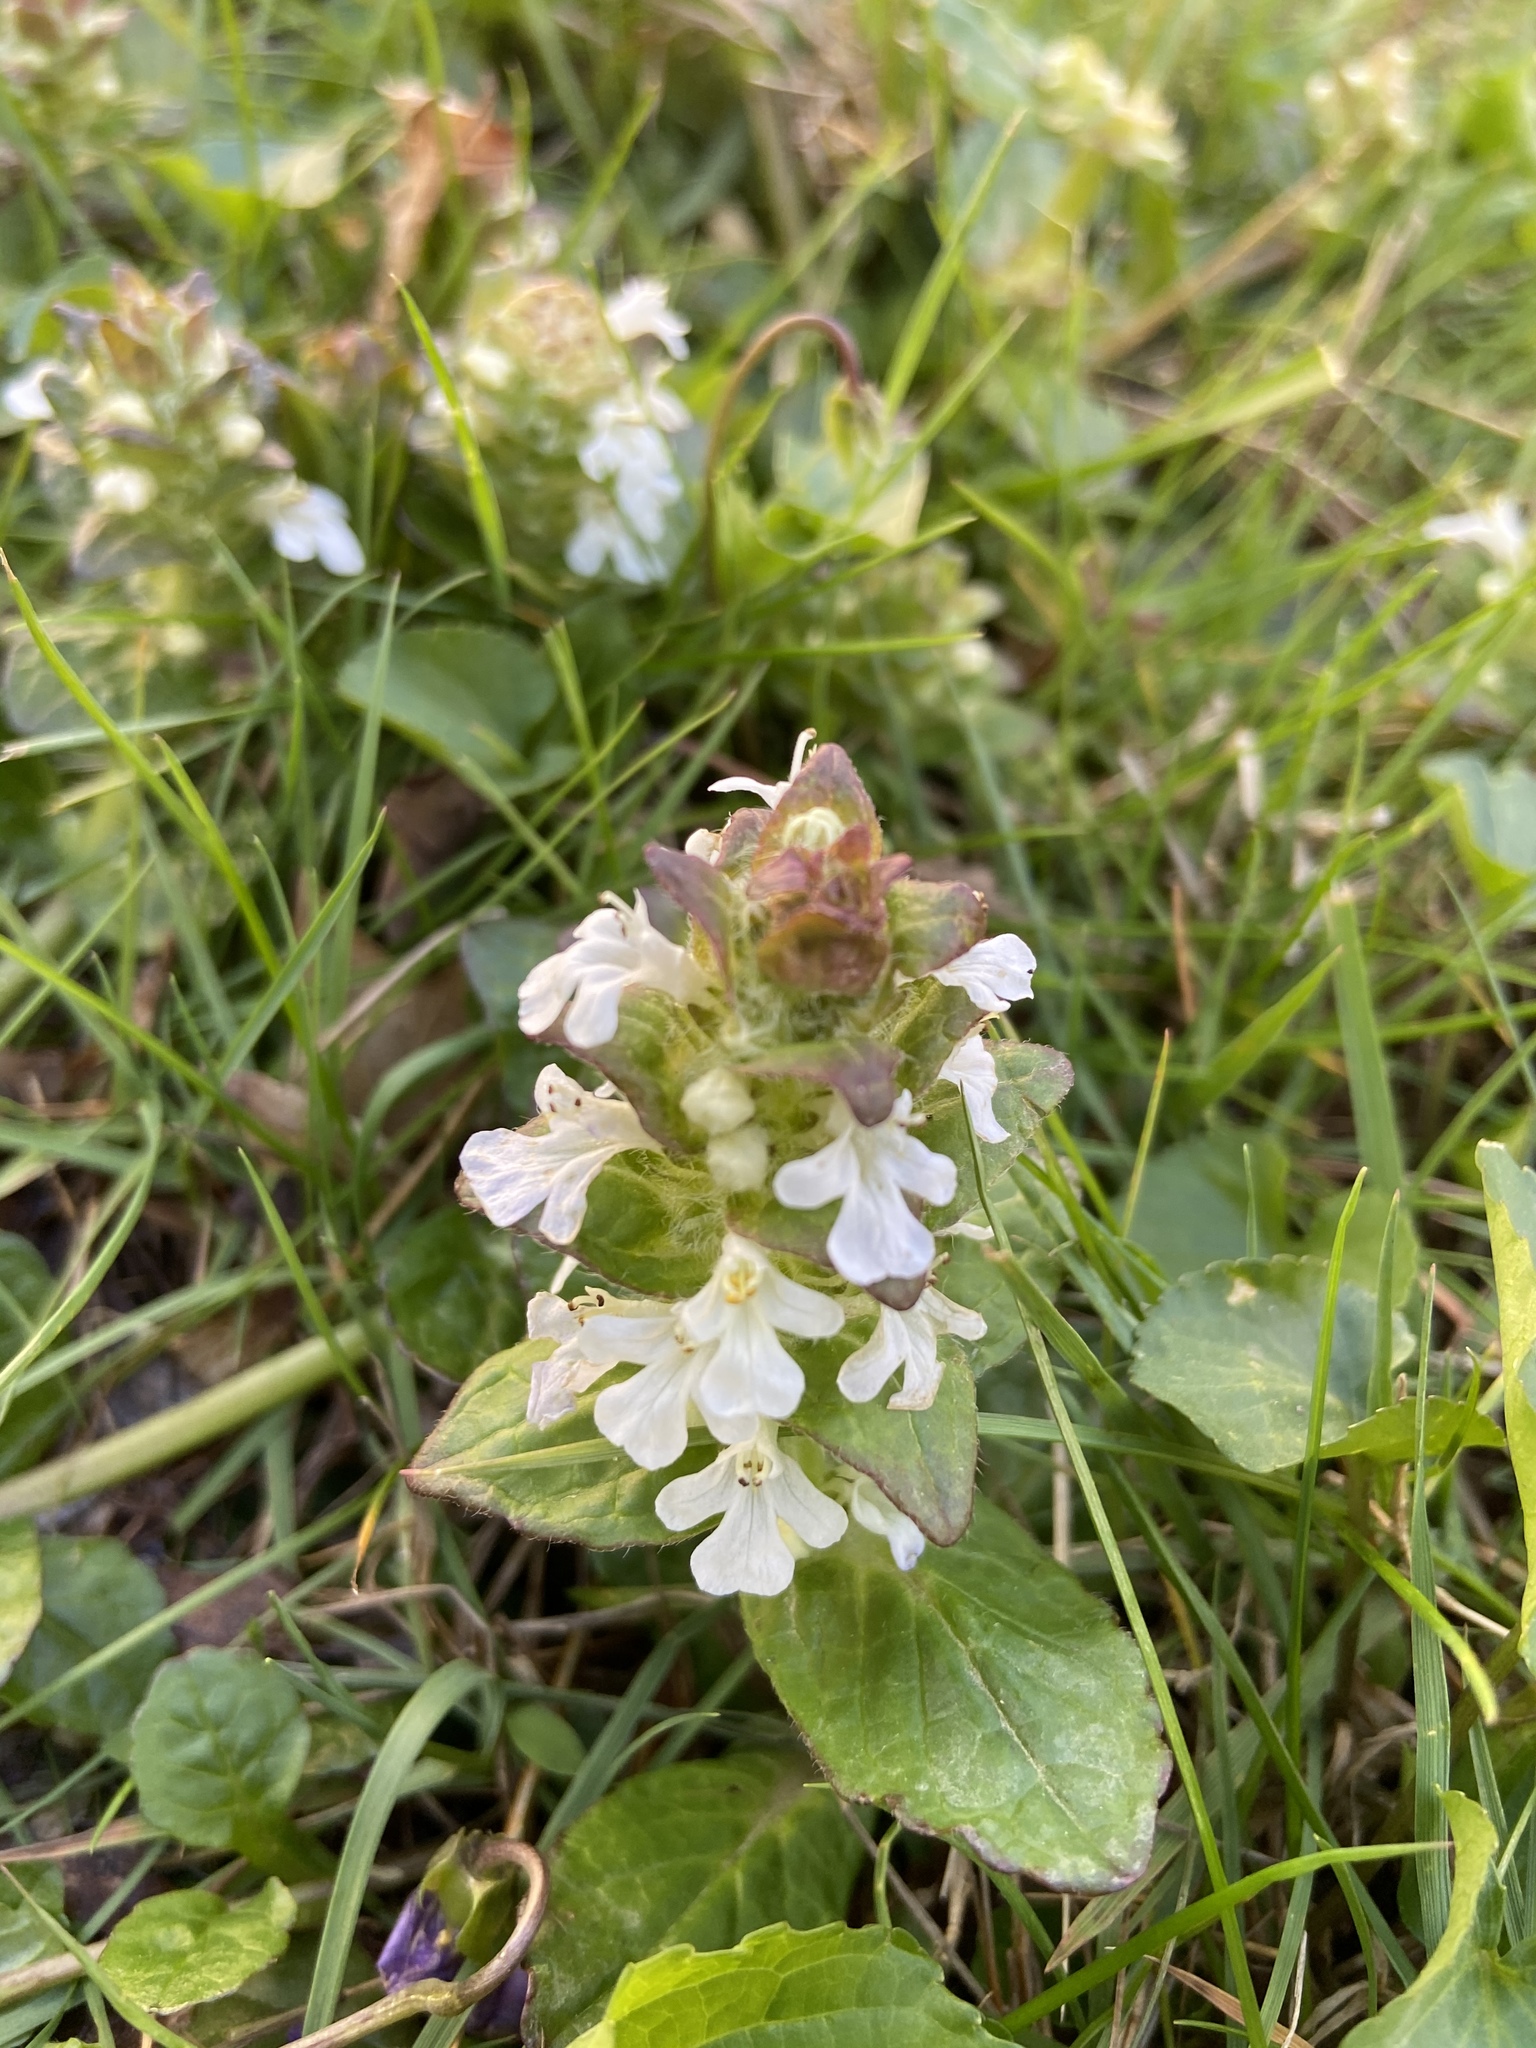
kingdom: Plantae
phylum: Tracheophyta
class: Magnoliopsida
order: Lamiales
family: Lamiaceae
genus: Ajuga
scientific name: Ajuga reptans
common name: Bugle
